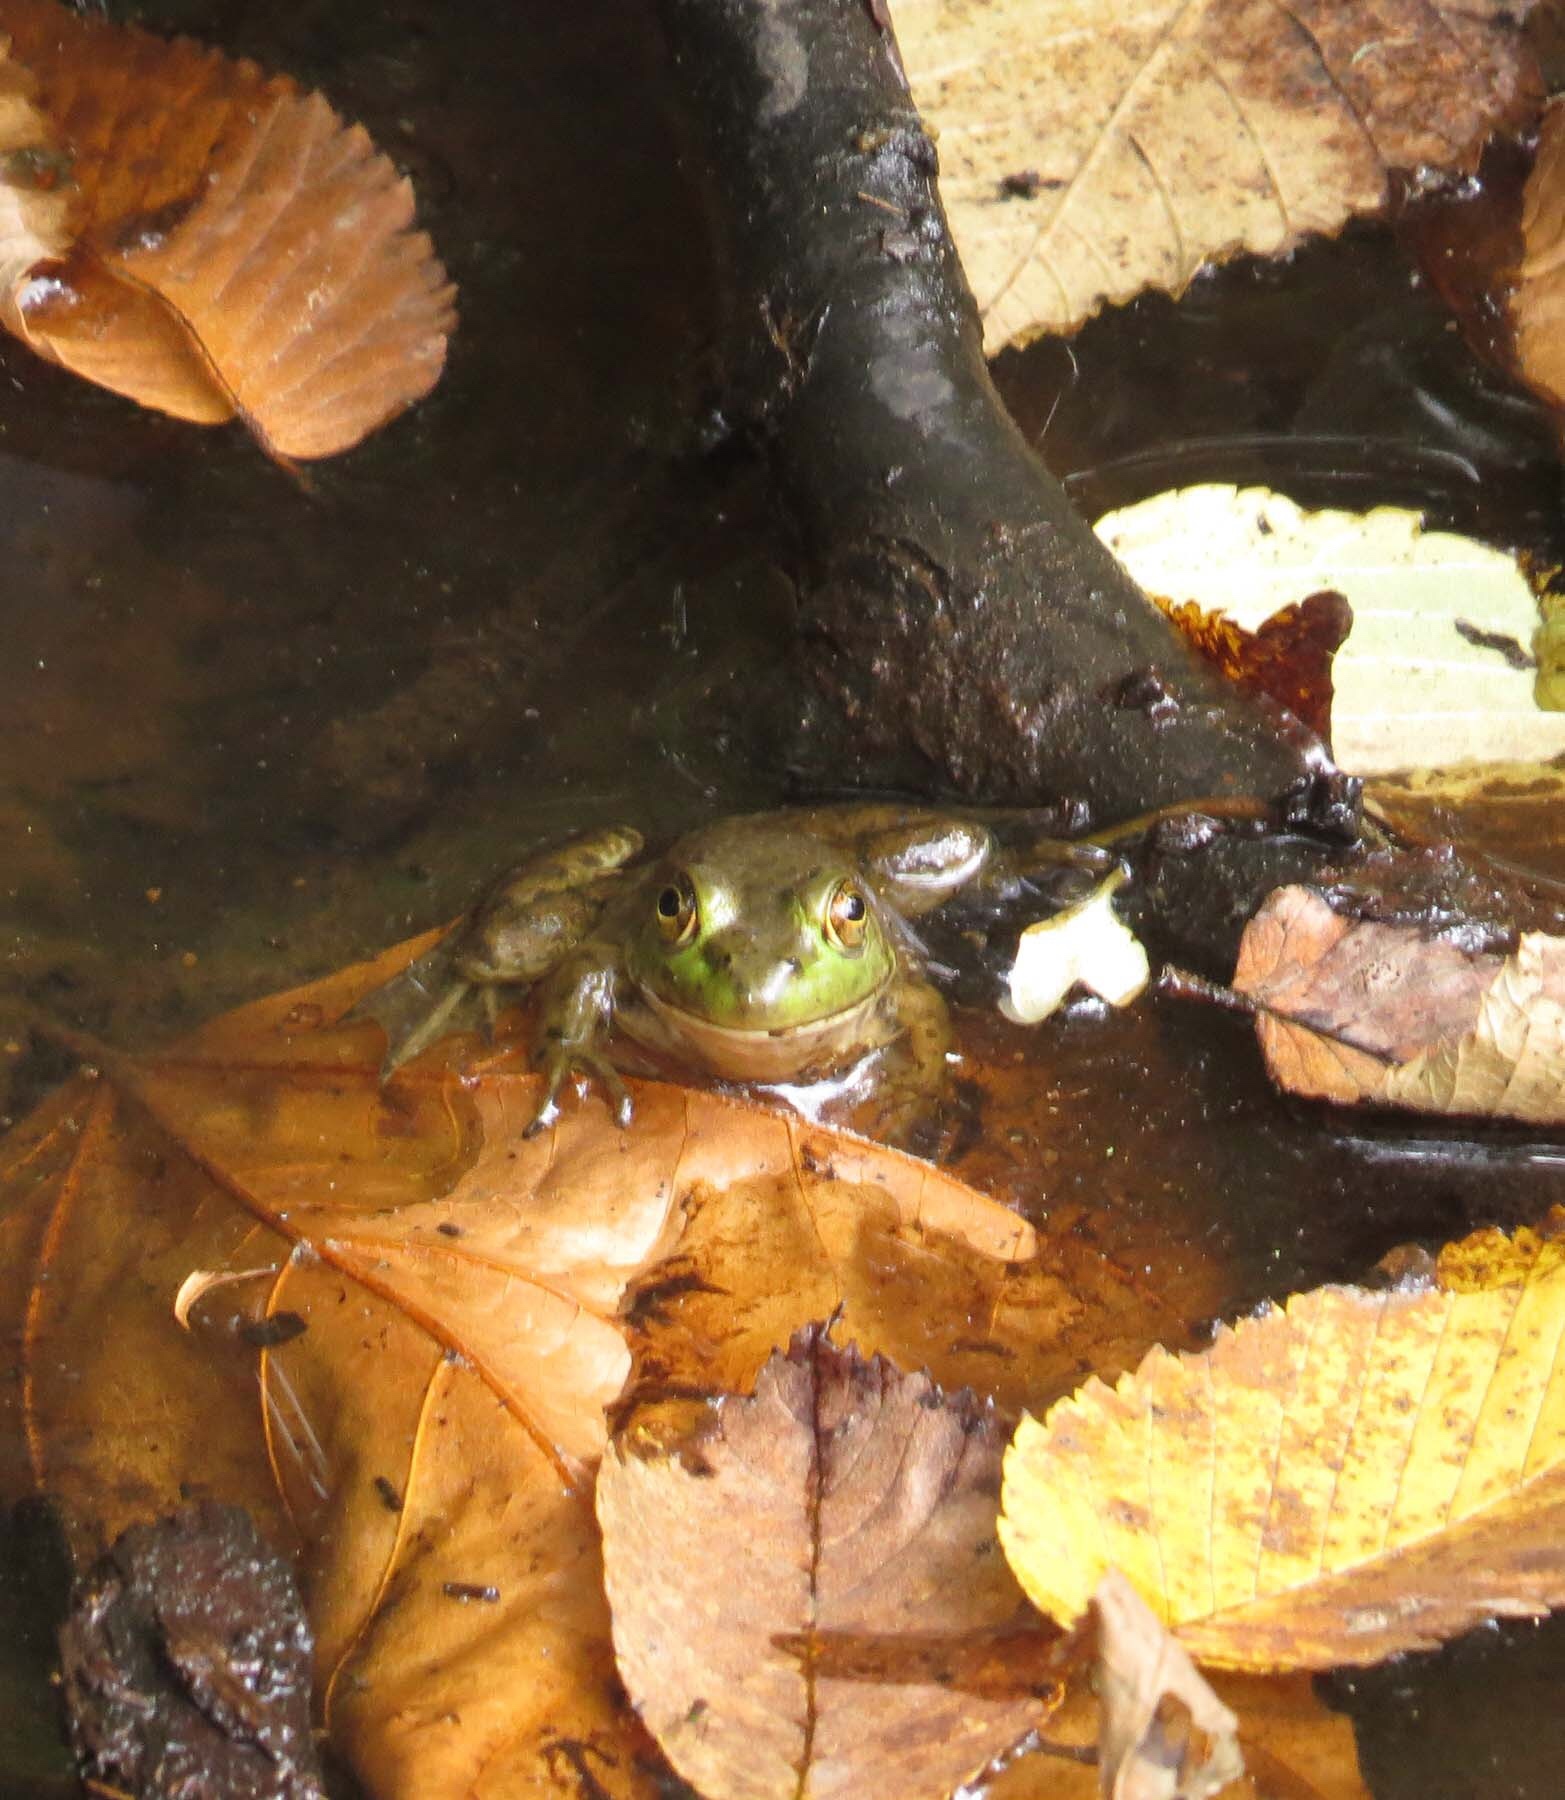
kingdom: Animalia
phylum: Chordata
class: Amphibia
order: Anura
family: Ranidae
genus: Lithobates
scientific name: Lithobates catesbeianus
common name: American bullfrog
